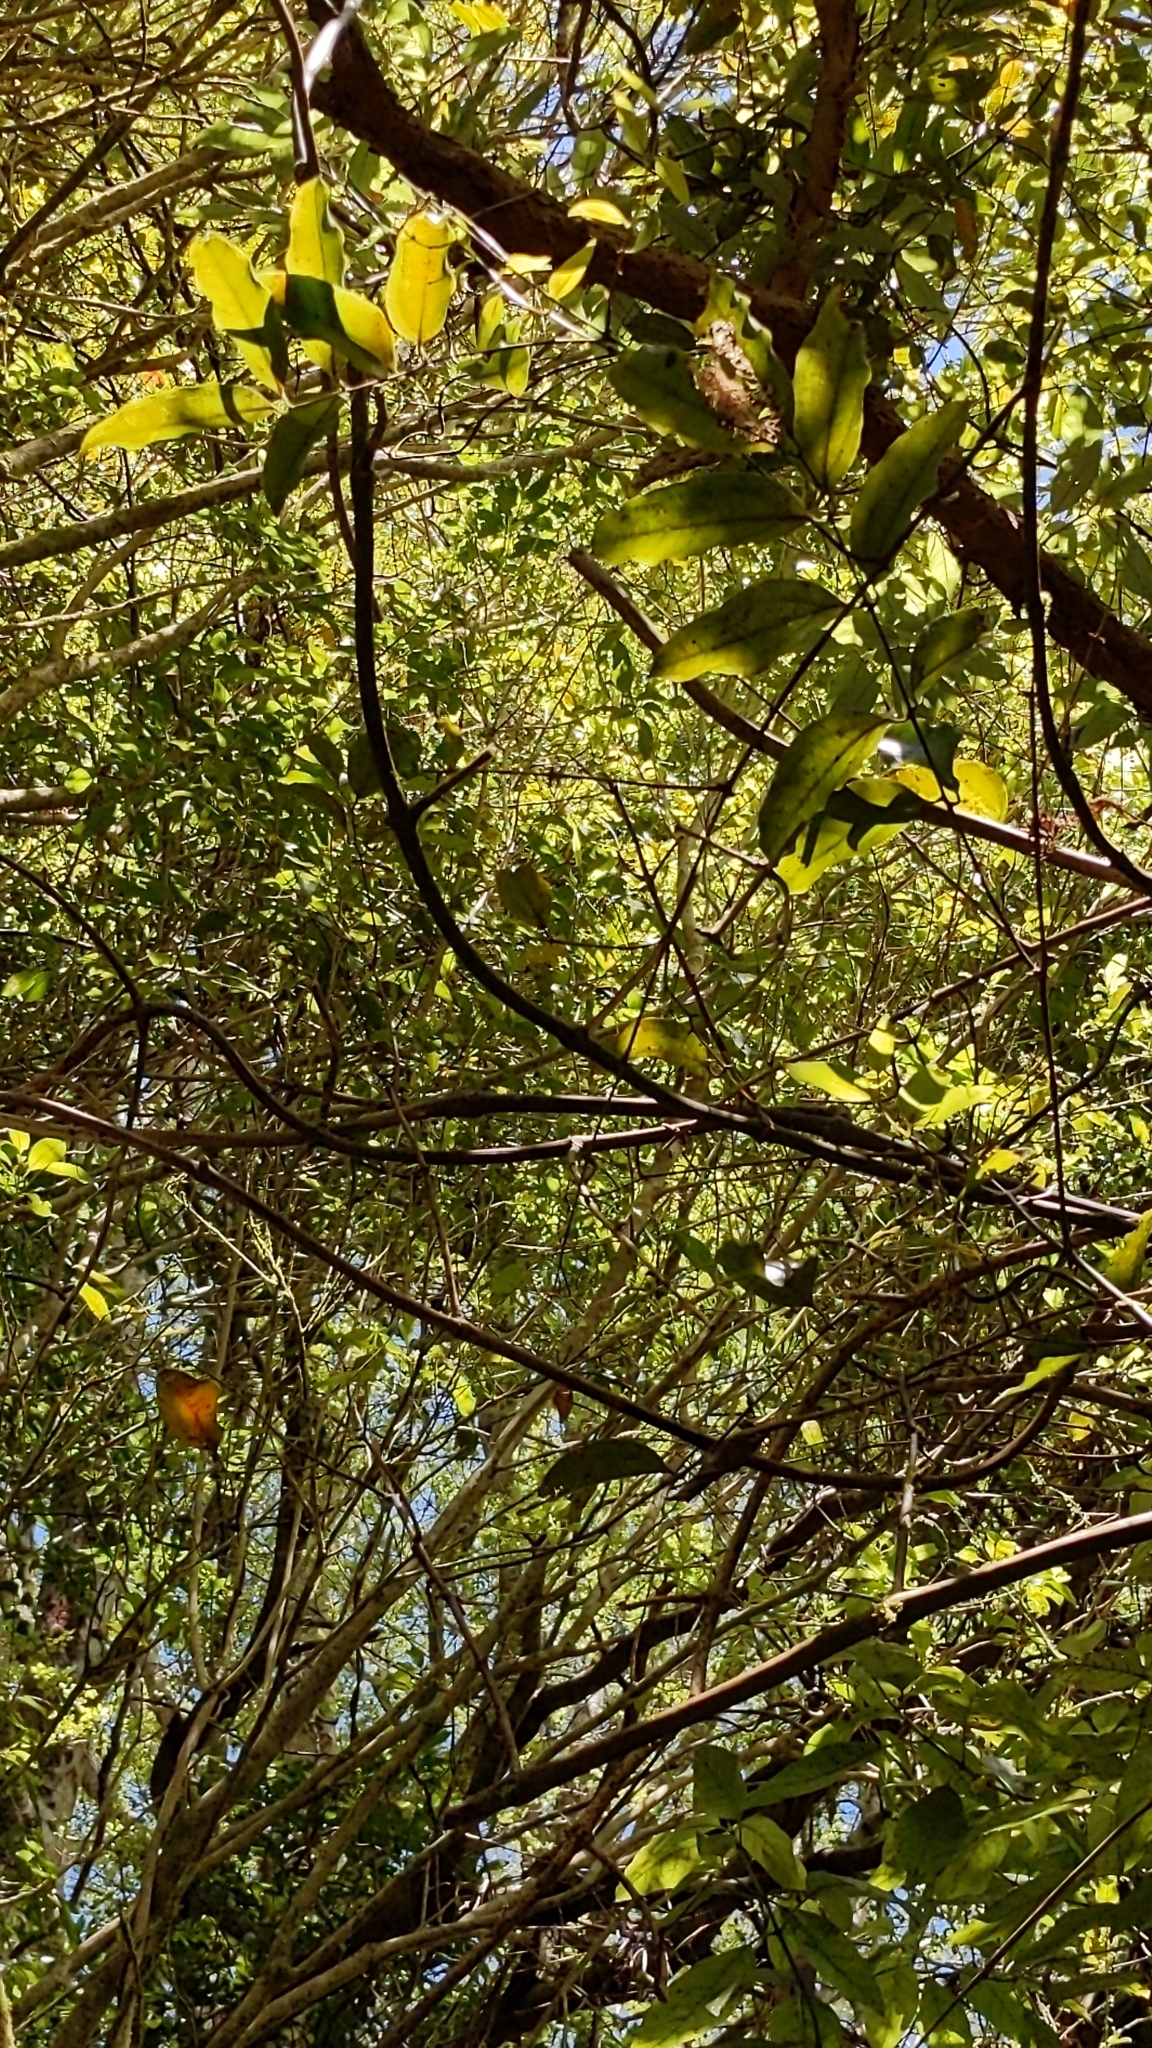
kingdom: Plantae
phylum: Tracheophyta
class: Liliopsida
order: Liliales
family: Ripogonaceae
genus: Ripogonum
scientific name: Ripogonum scandens
